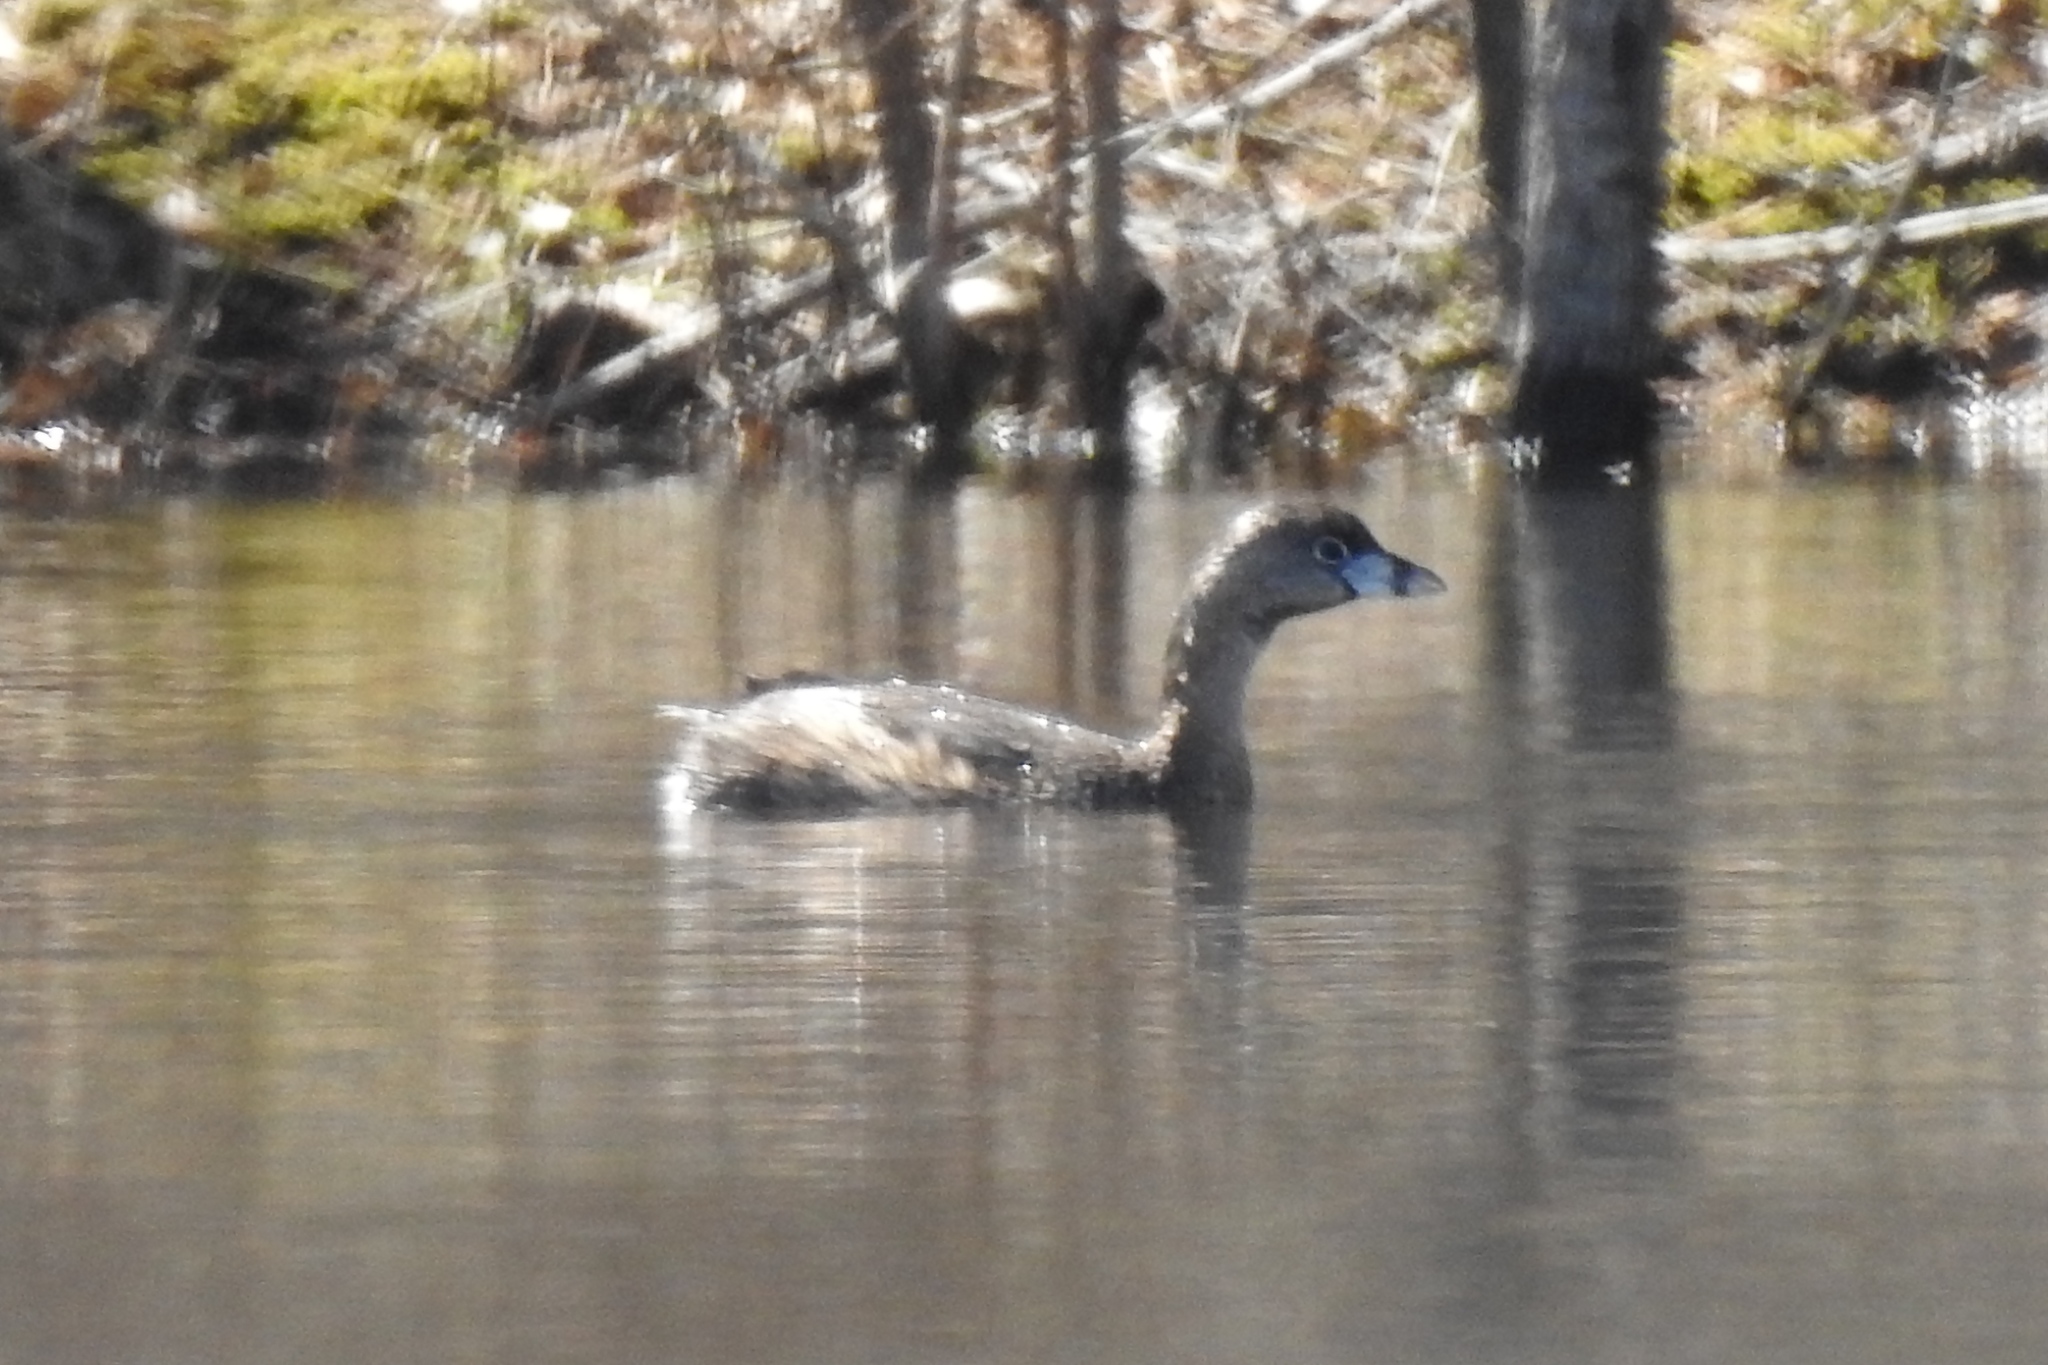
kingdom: Animalia
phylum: Chordata
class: Aves
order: Podicipediformes
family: Podicipedidae
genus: Podilymbus
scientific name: Podilymbus podiceps
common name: Pied-billed grebe
